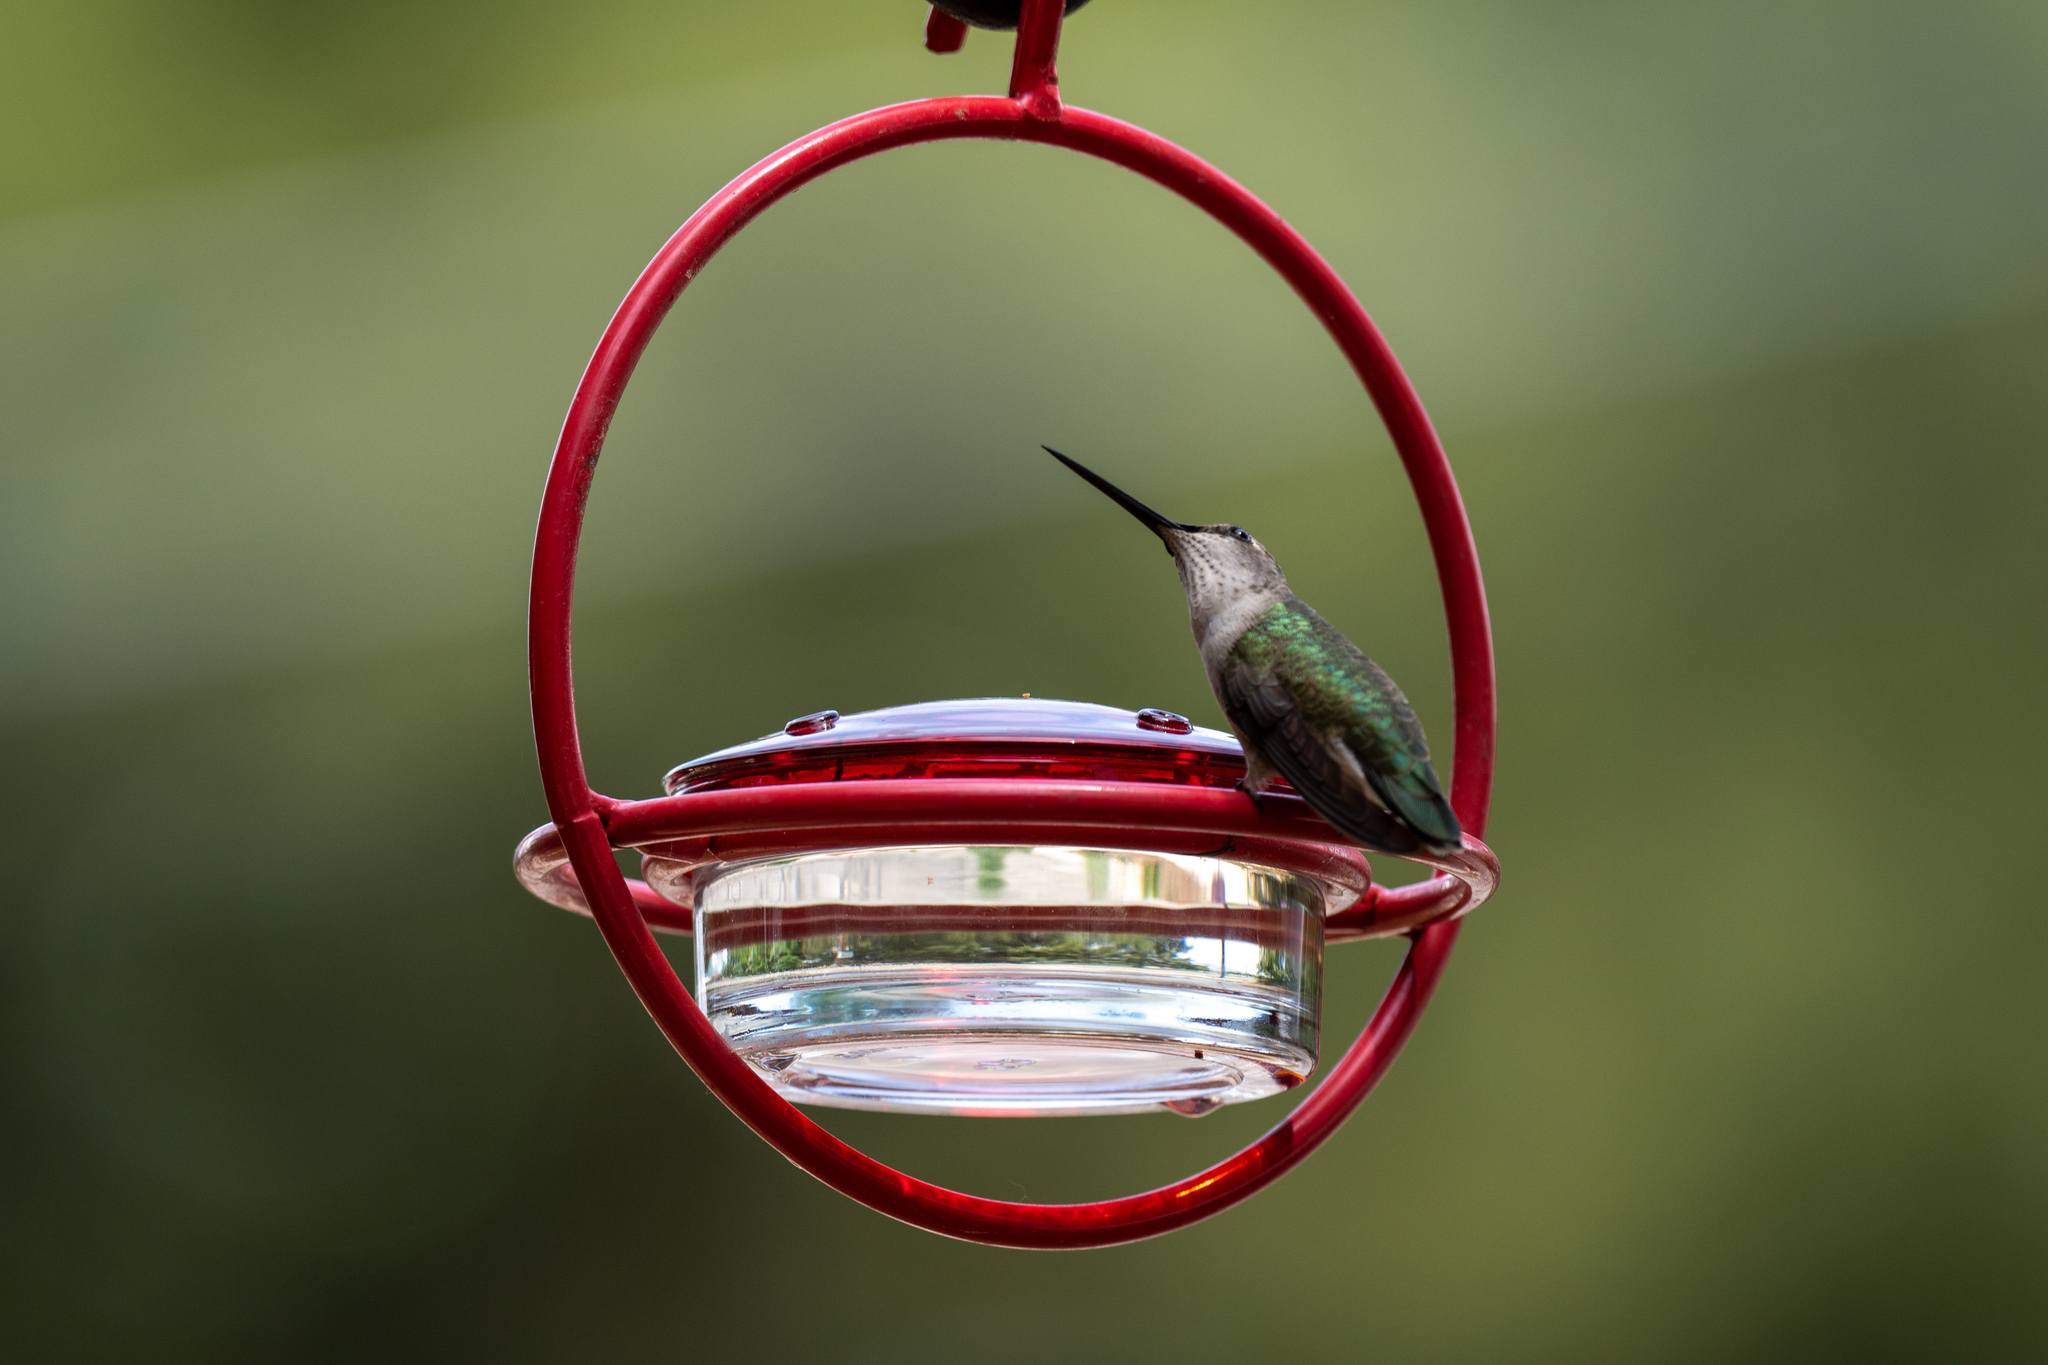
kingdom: Animalia
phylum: Chordata
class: Aves
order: Apodiformes
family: Trochilidae
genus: Archilochus
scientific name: Archilochus alexandri
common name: Black-chinned hummingbird
